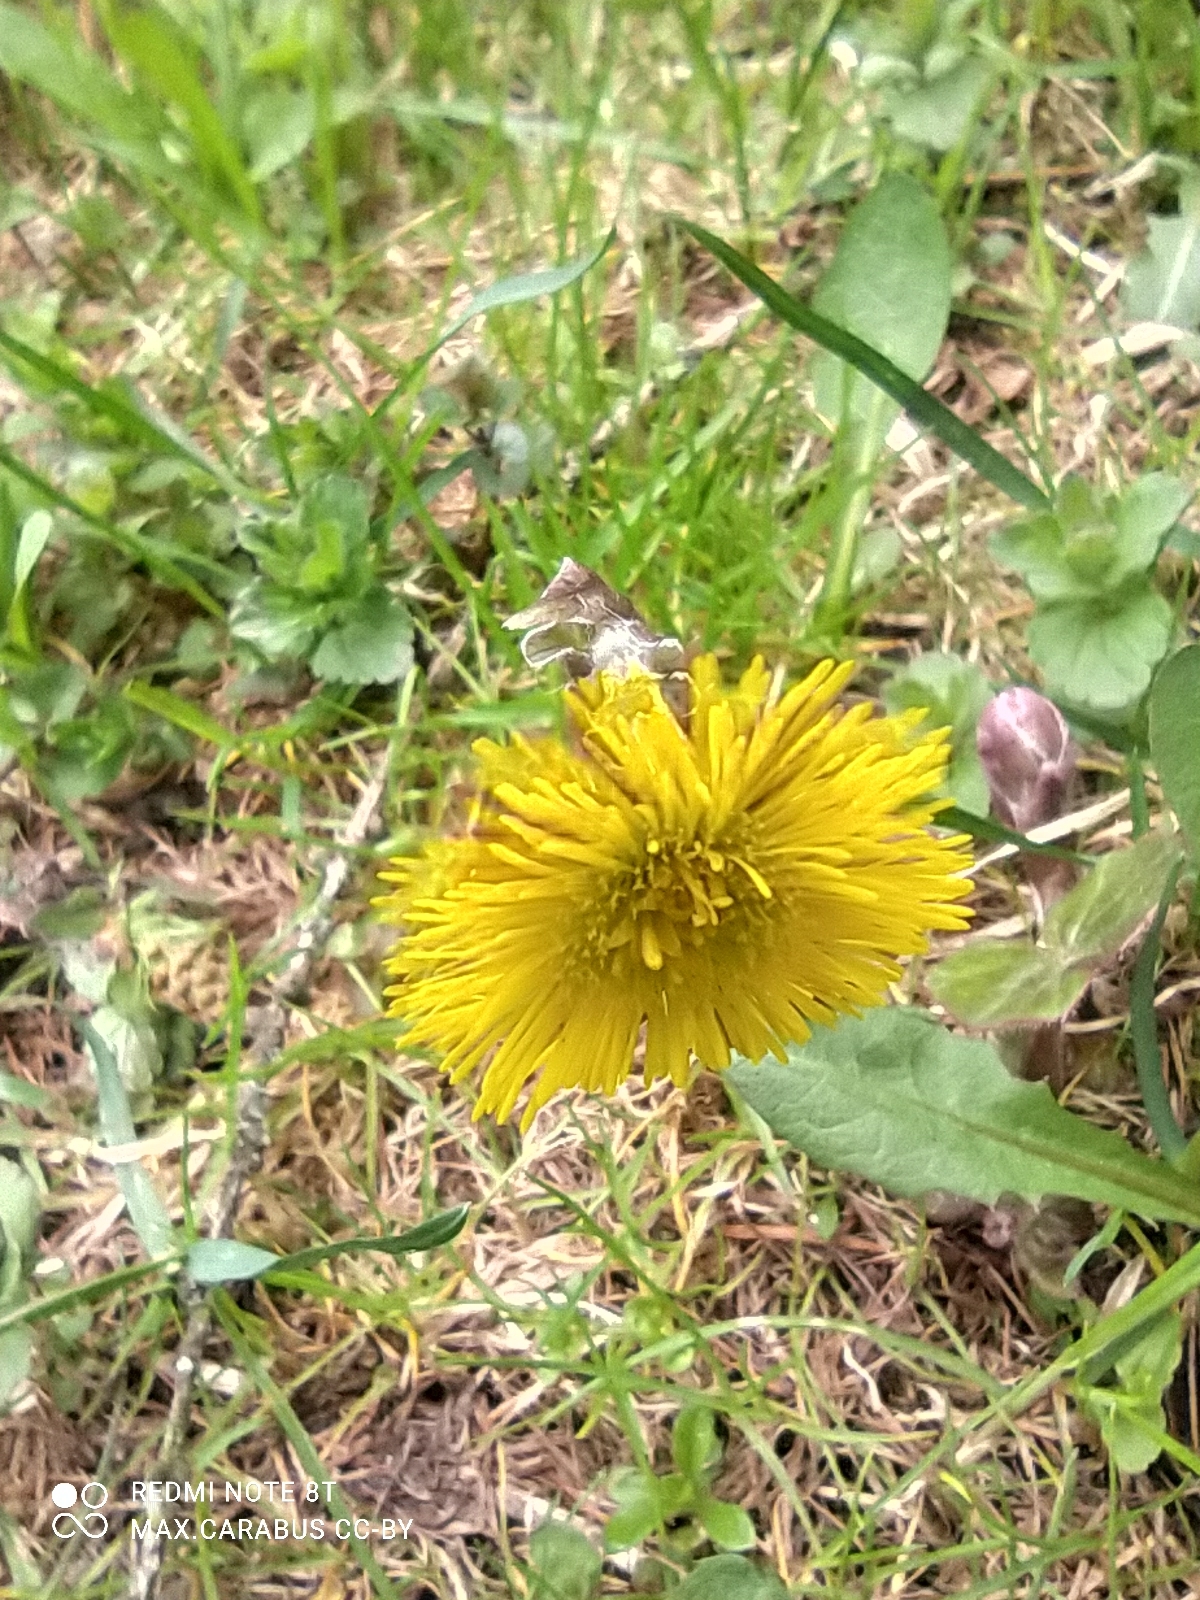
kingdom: Plantae
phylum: Tracheophyta
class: Magnoliopsida
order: Asterales
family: Asteraceae
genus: Tussilago
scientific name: Tussilago farfara
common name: Coltsfoot
